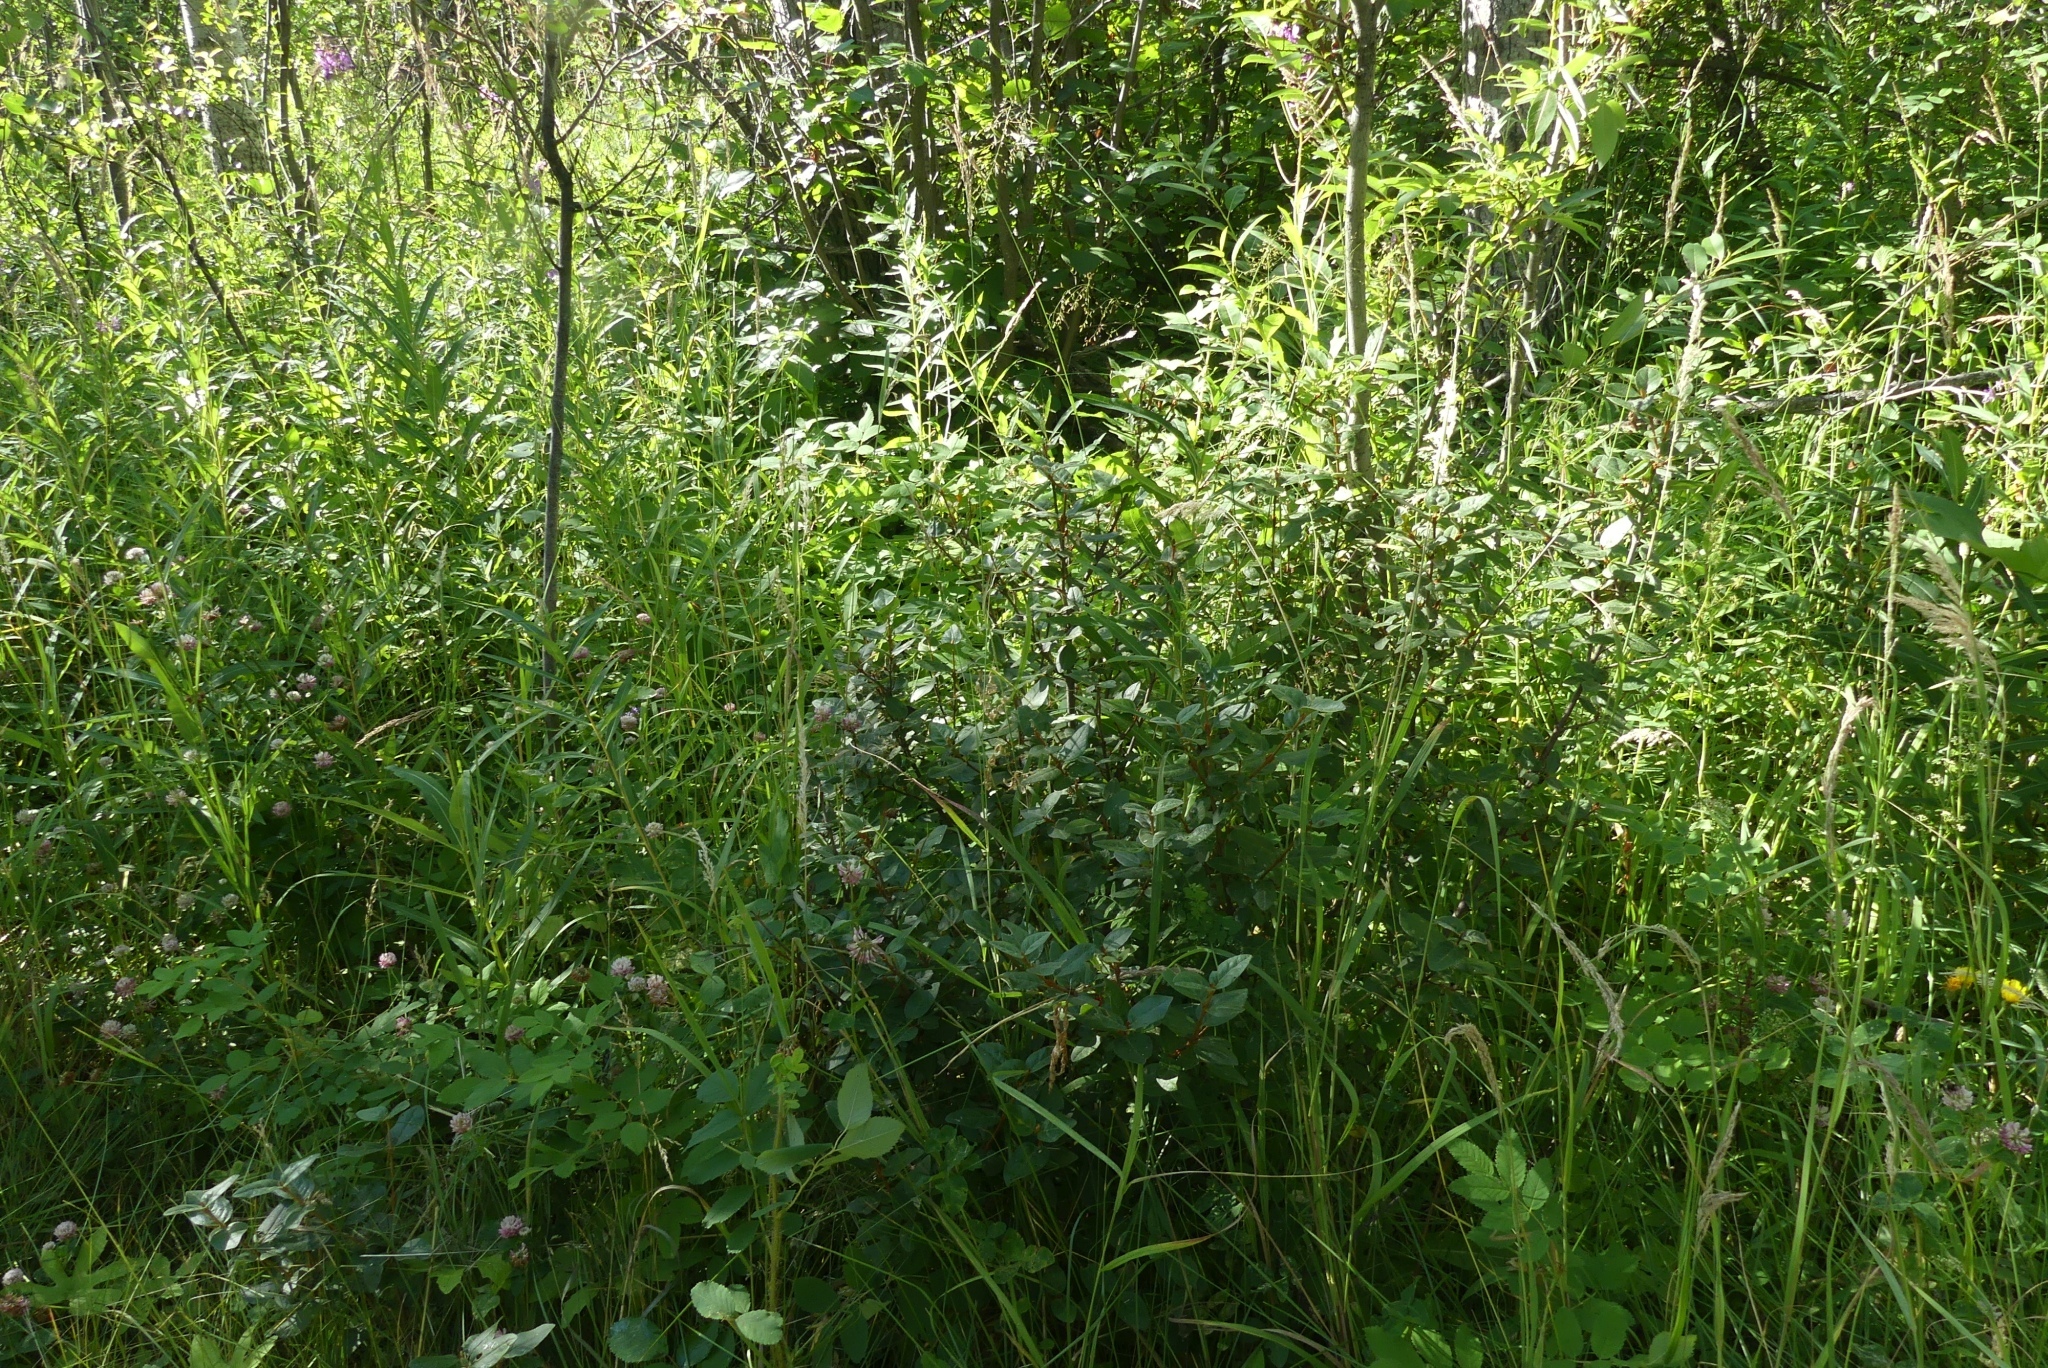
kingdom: Plantae
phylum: Tracheophyta
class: Magnoliopsida
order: Rosales
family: Elaeagnaceae
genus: Shepherdia
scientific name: Shepherdia canadensis
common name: Soapberry
